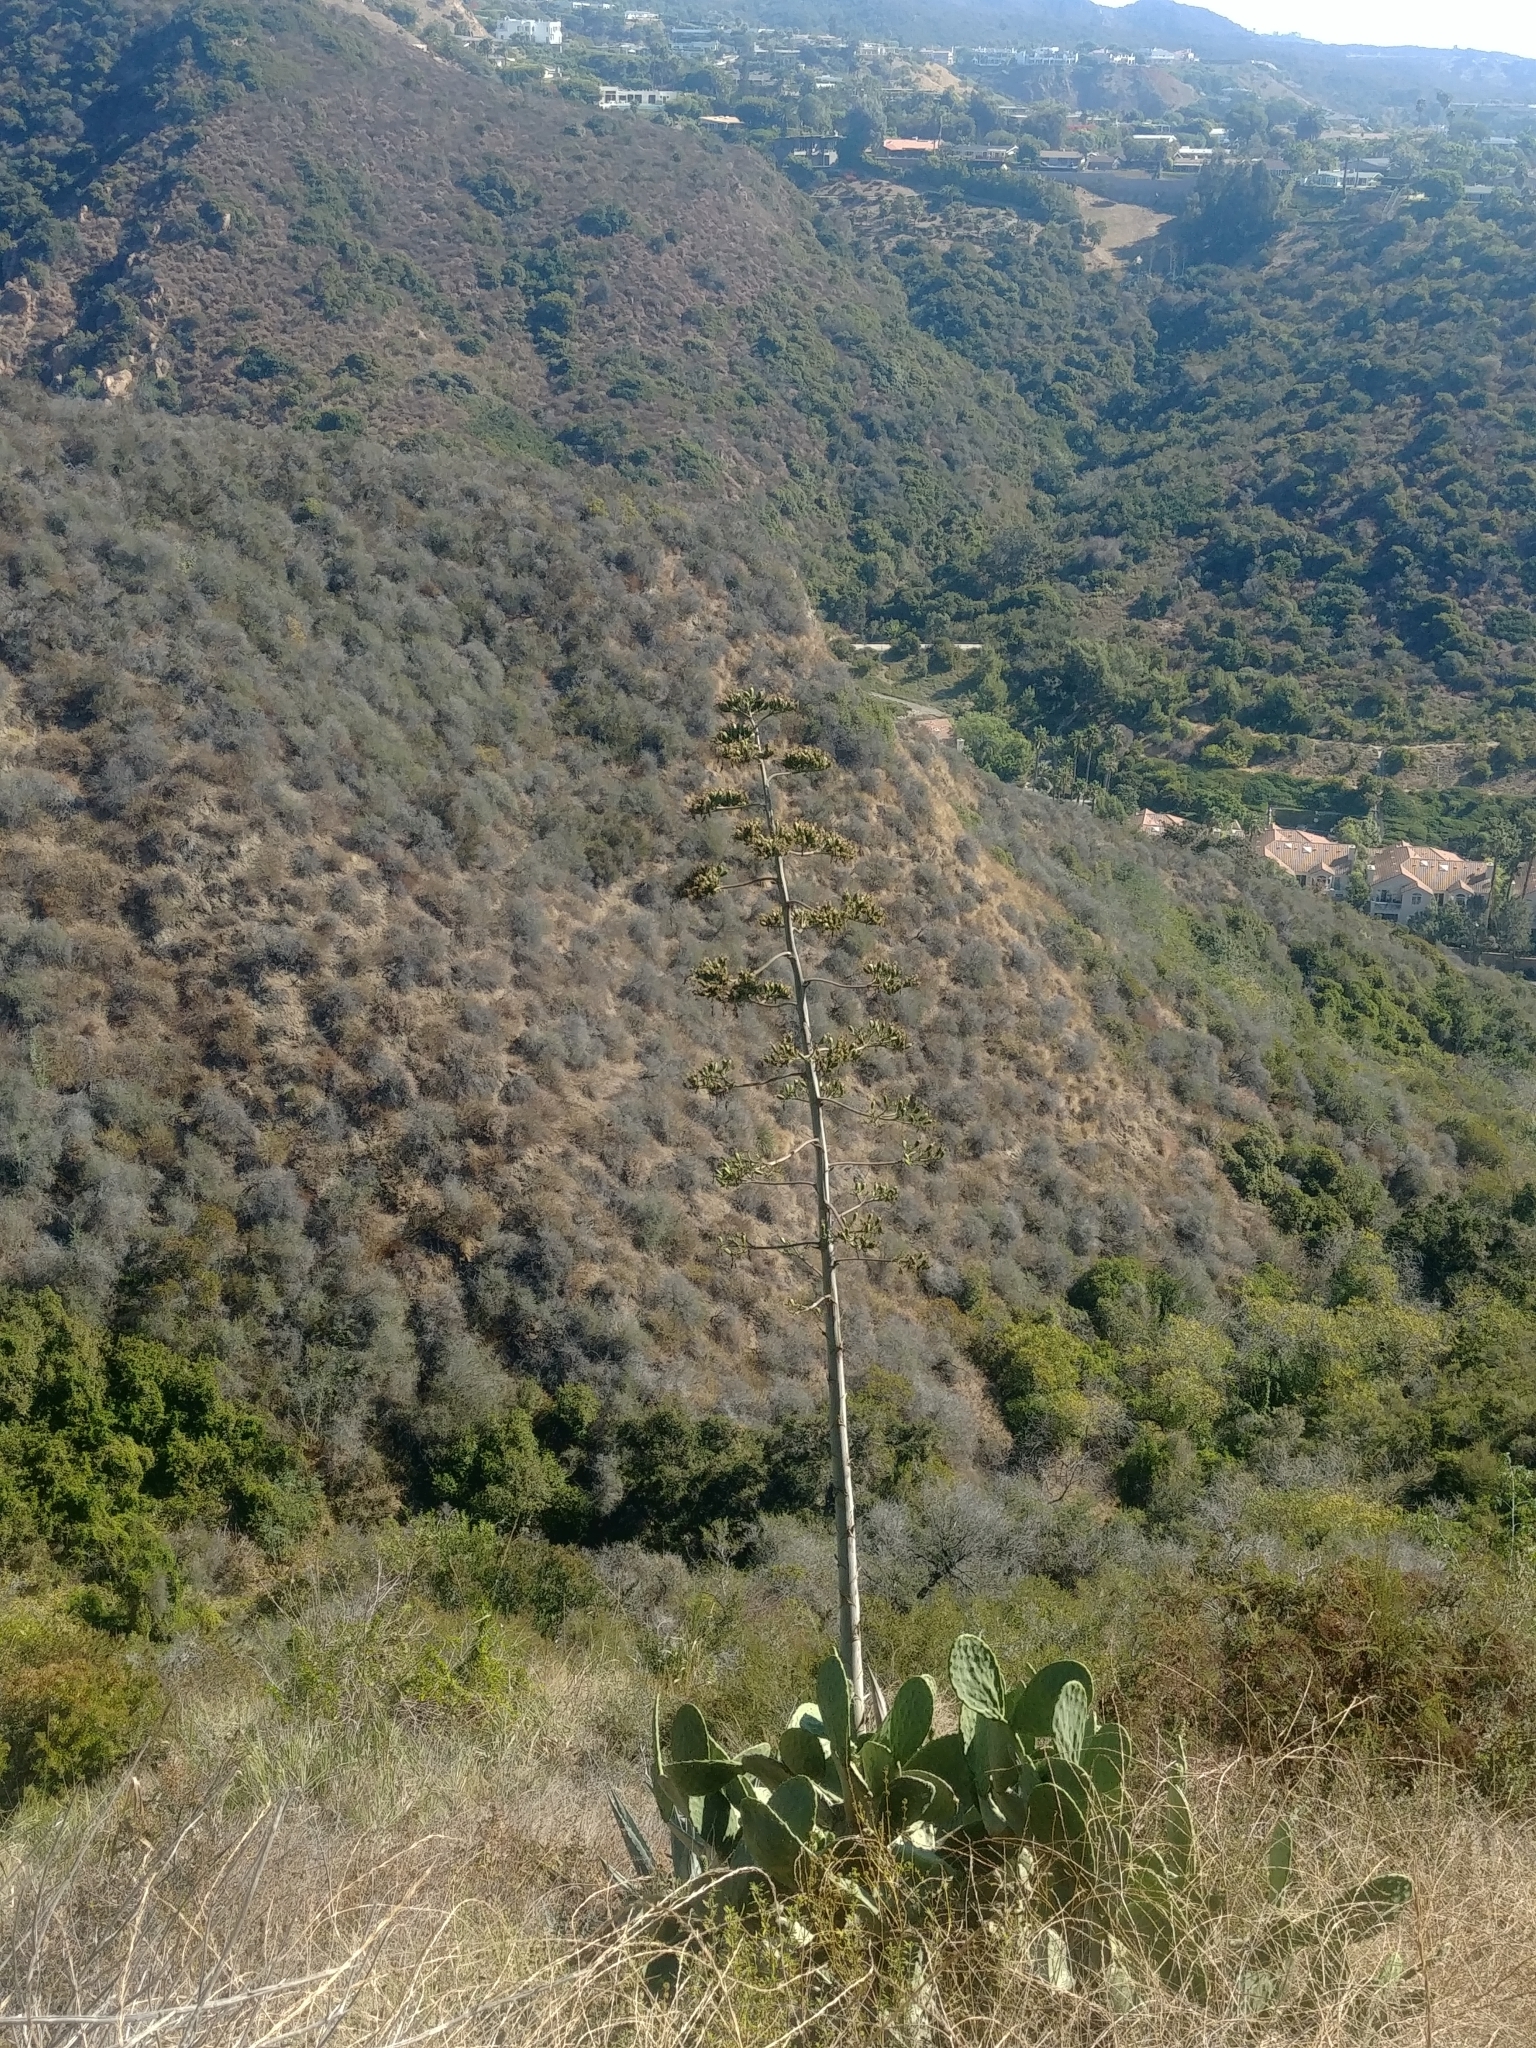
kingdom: Plantae
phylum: Tracheophyta
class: Liliopsida
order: Asparagales
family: Asparagaceae
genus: Agave
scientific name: Agave americana
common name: Centuryplant
